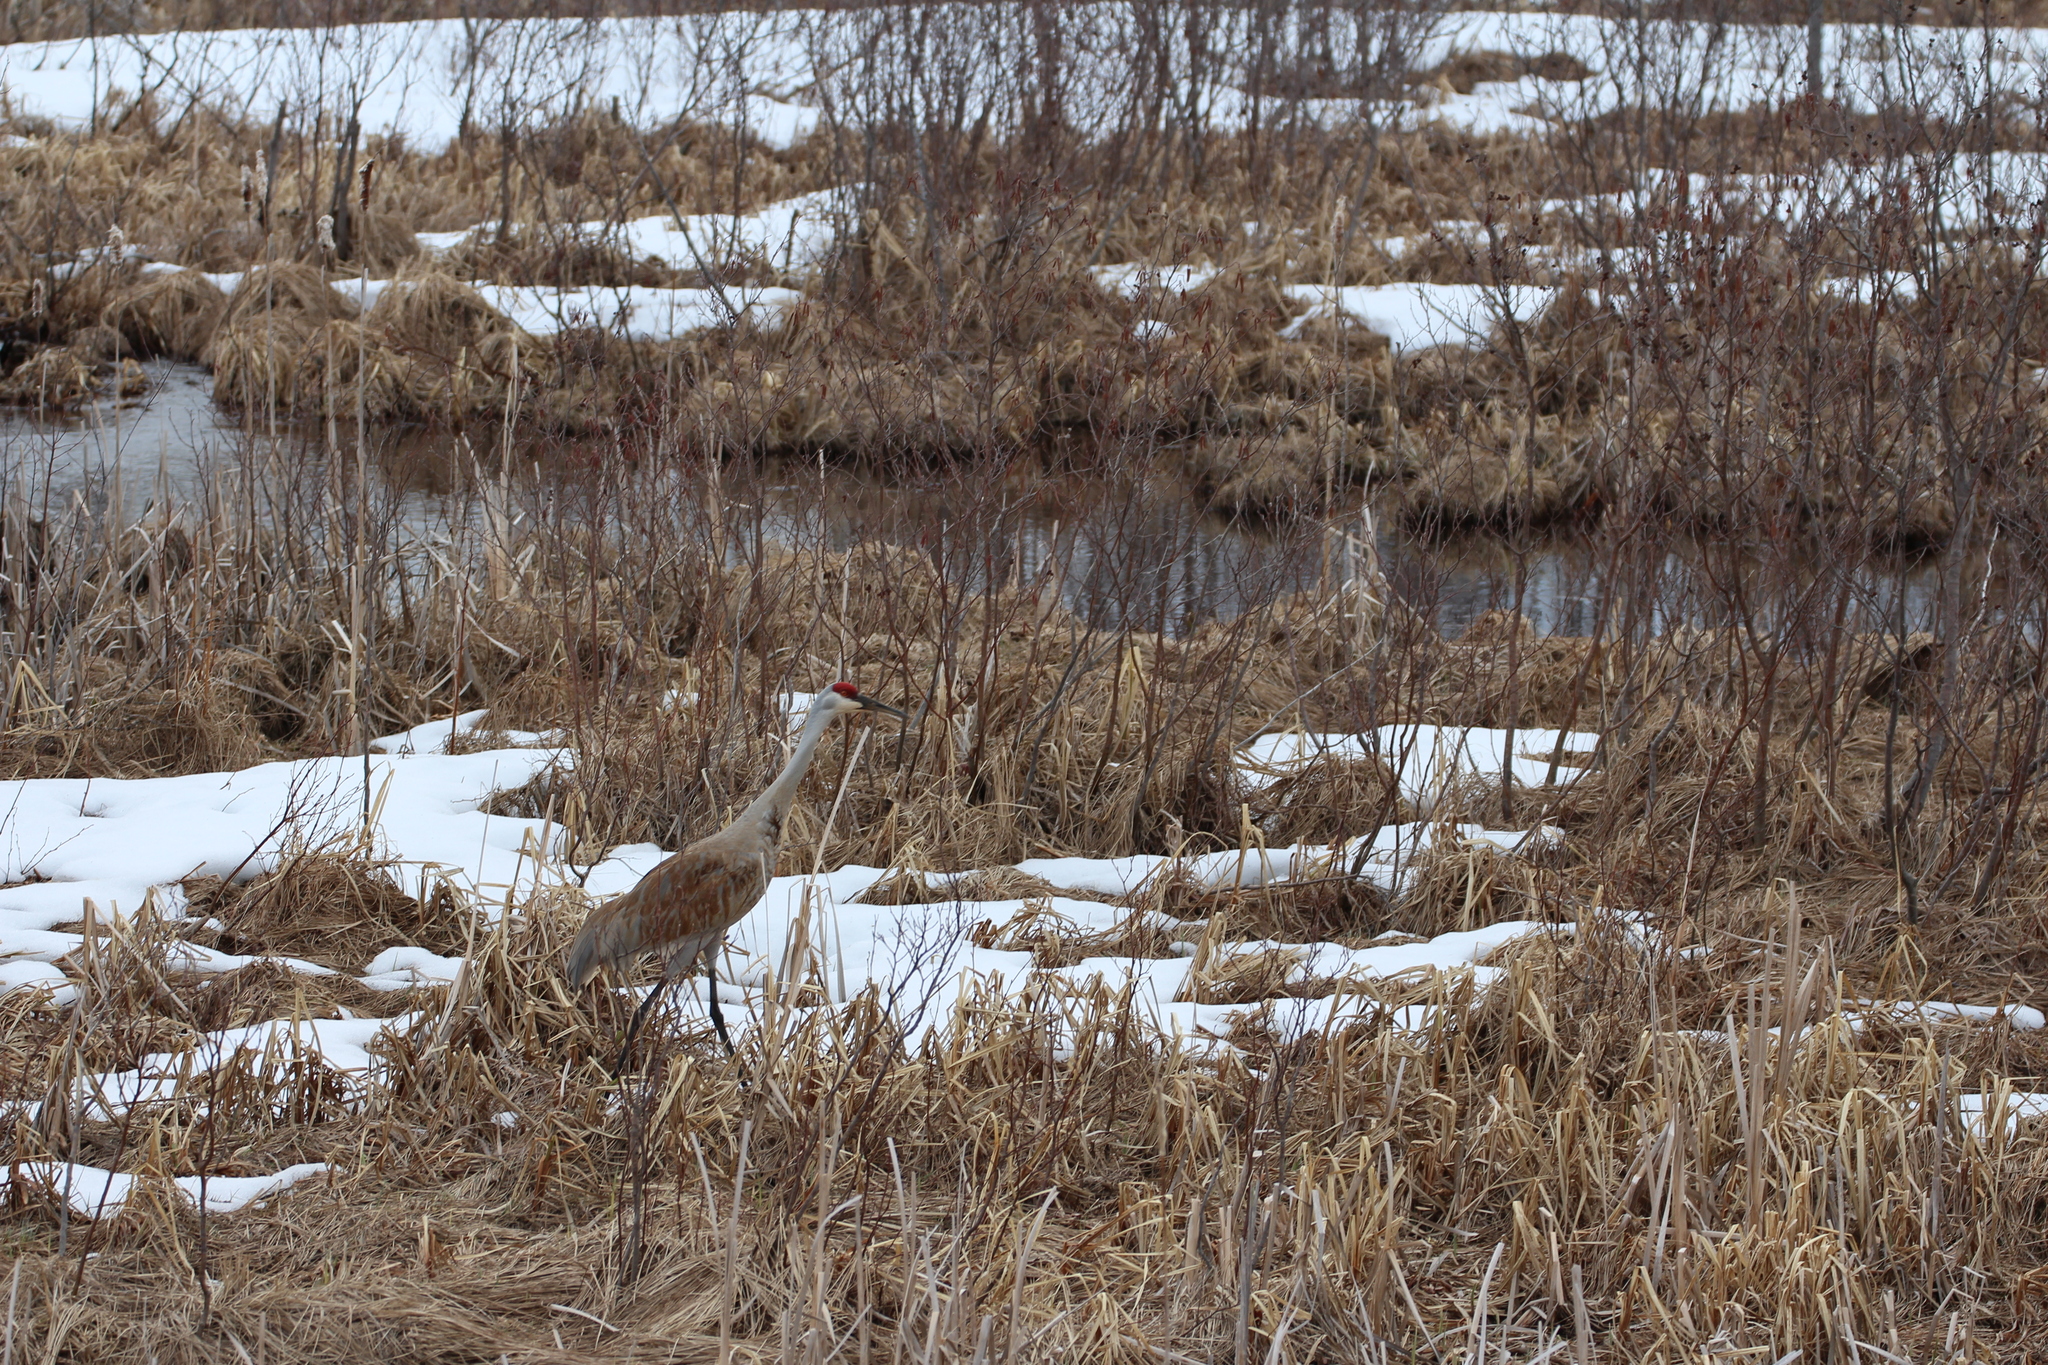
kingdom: Animalia
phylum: Chordata
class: Aves
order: Gruiformes
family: Gruidae
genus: Grus
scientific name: Grus canadensis
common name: Sandhill crane
